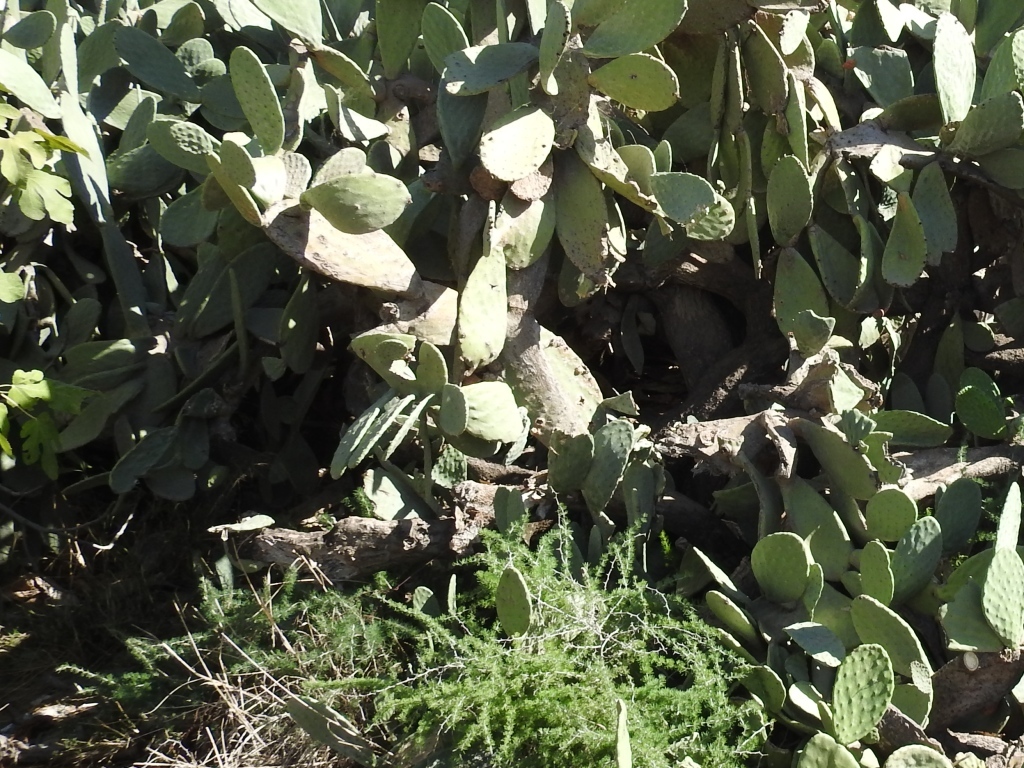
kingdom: Plantae
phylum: Tracheophyta
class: Magnoliopsida
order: Caryophyllales
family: Cactaceae
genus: Opuntia
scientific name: Opuntia ficus-indica
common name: Barbary fig
